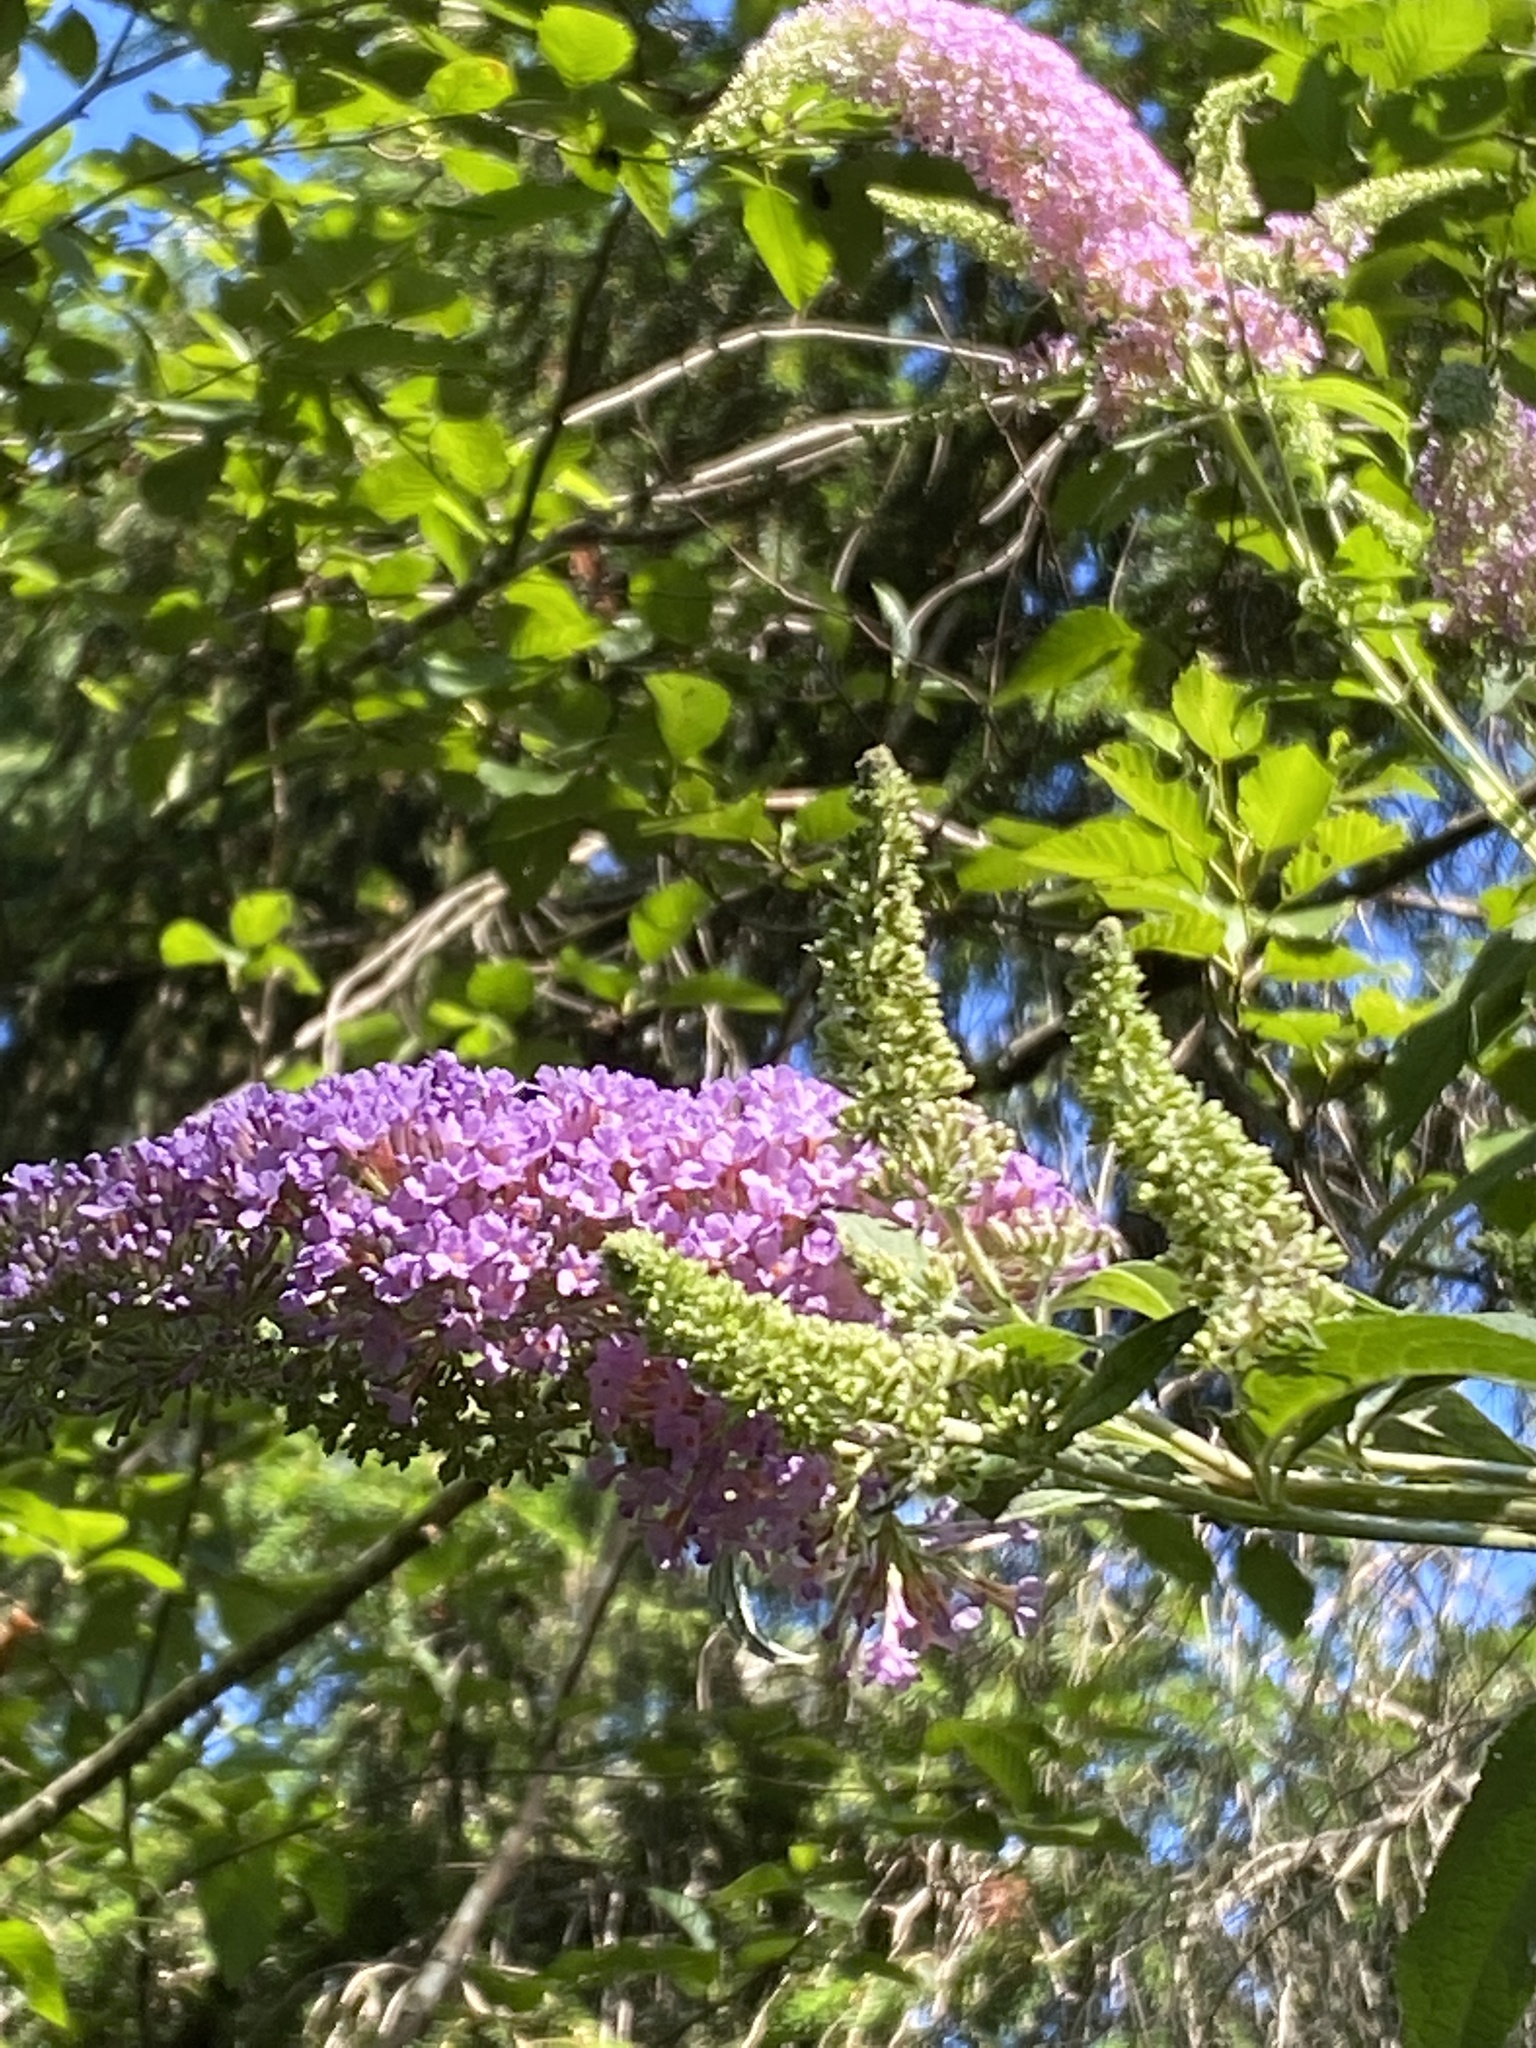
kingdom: Plantae
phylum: Tracheophyta
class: Magnoliopsida
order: Lamiales
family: Scrophulariaceae
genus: Buddleja
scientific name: Buddleja davidii
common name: Butterfly-bush
